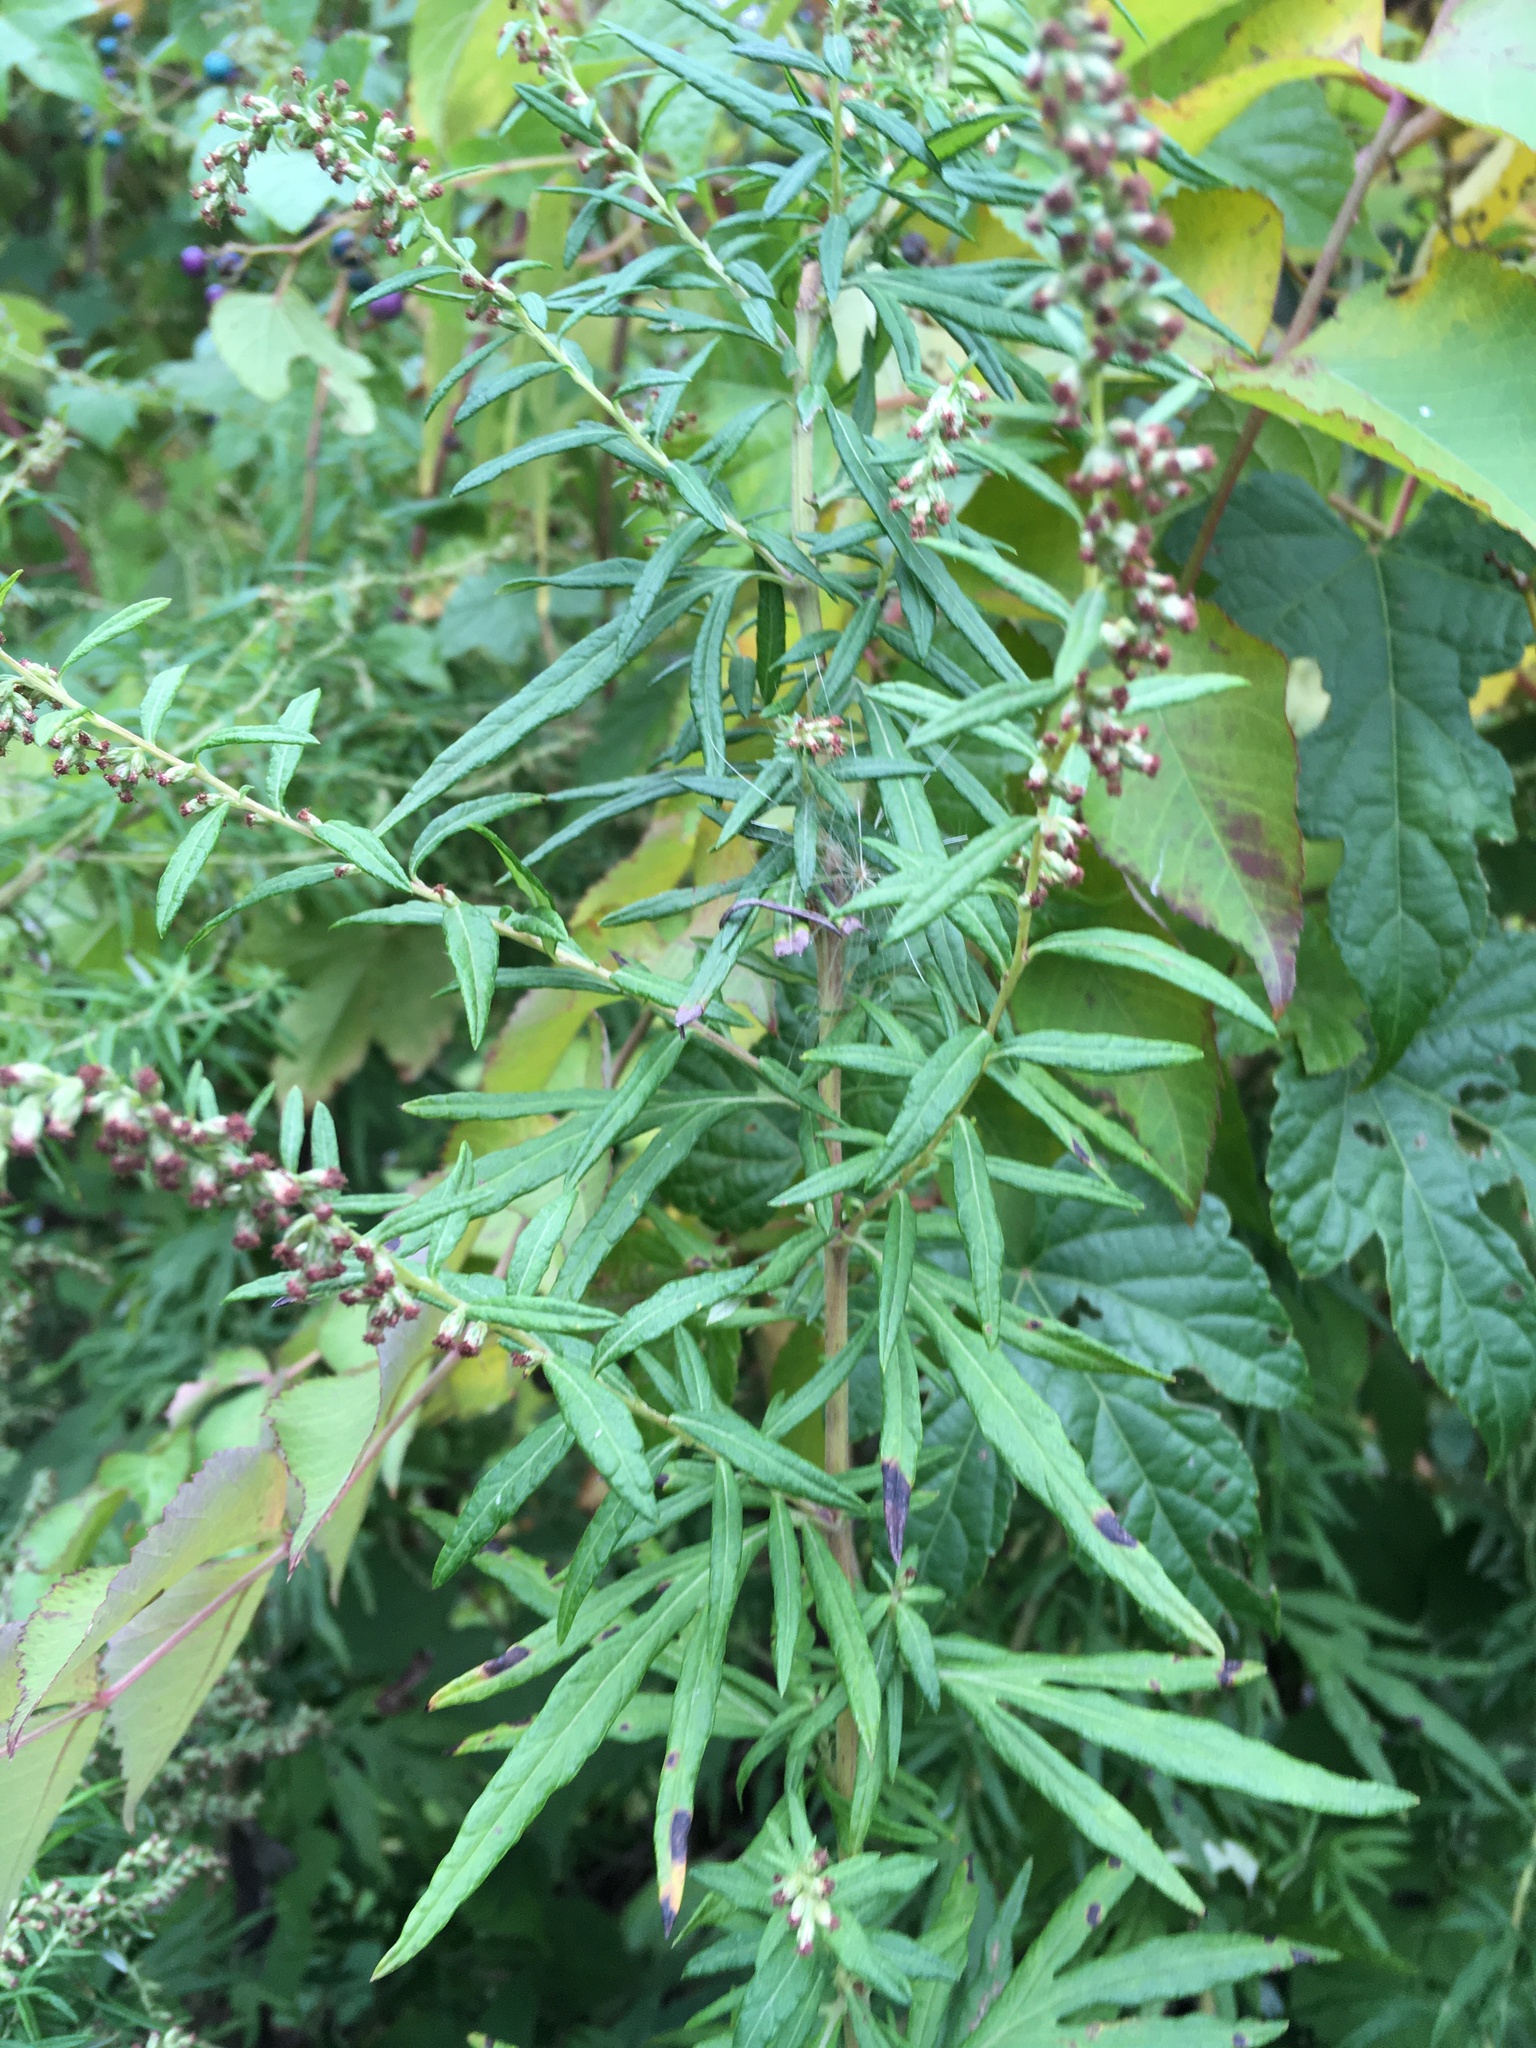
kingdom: Plantae
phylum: Tracheophyta
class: Magnoliopsida
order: Asterales
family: Asteraceae
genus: Artemisia
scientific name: Artemisia vulgaris
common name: Mugwort
